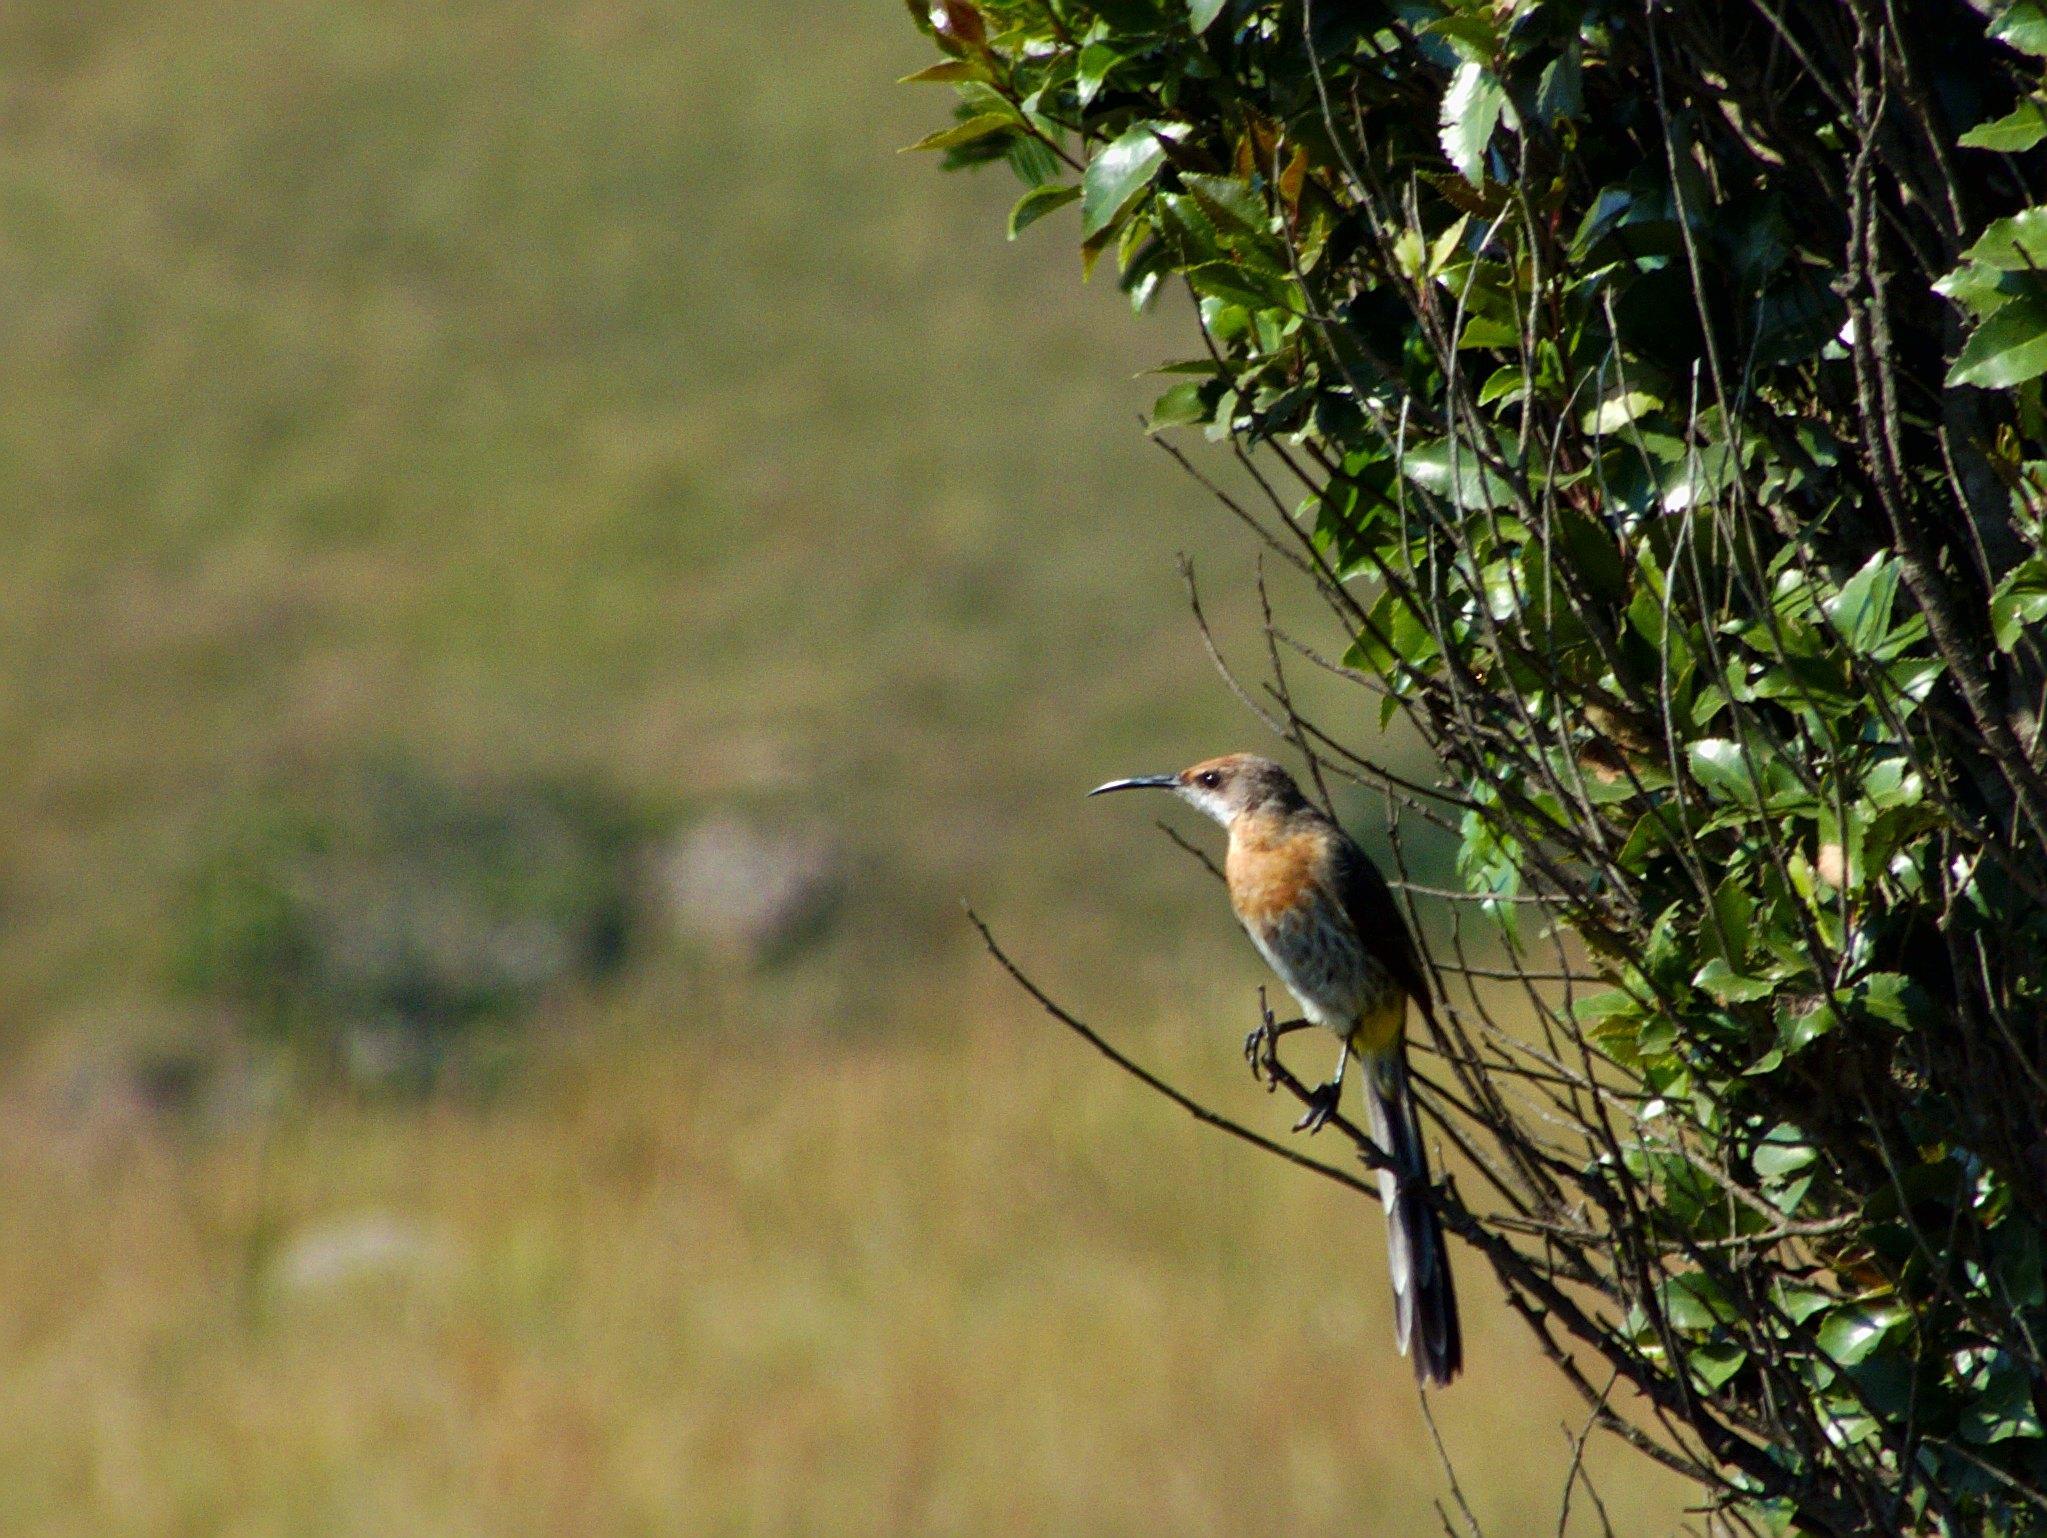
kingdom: Animalia
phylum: Chordata
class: Aves
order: Passeriformes
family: Promeropidae
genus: Promerops
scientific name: Promerops gurneyi
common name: Gurney's sugarbird
